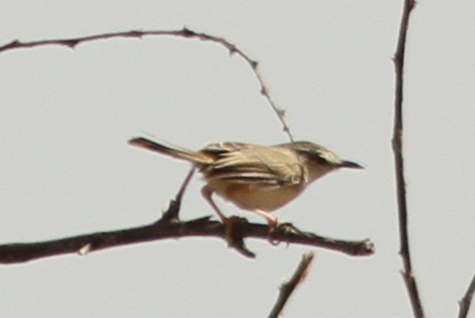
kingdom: Animalia
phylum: Chordata
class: Aves
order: Passeriformes
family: Cisticolidae
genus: Prinia
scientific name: Prinia fluviatilis
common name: River prinia
